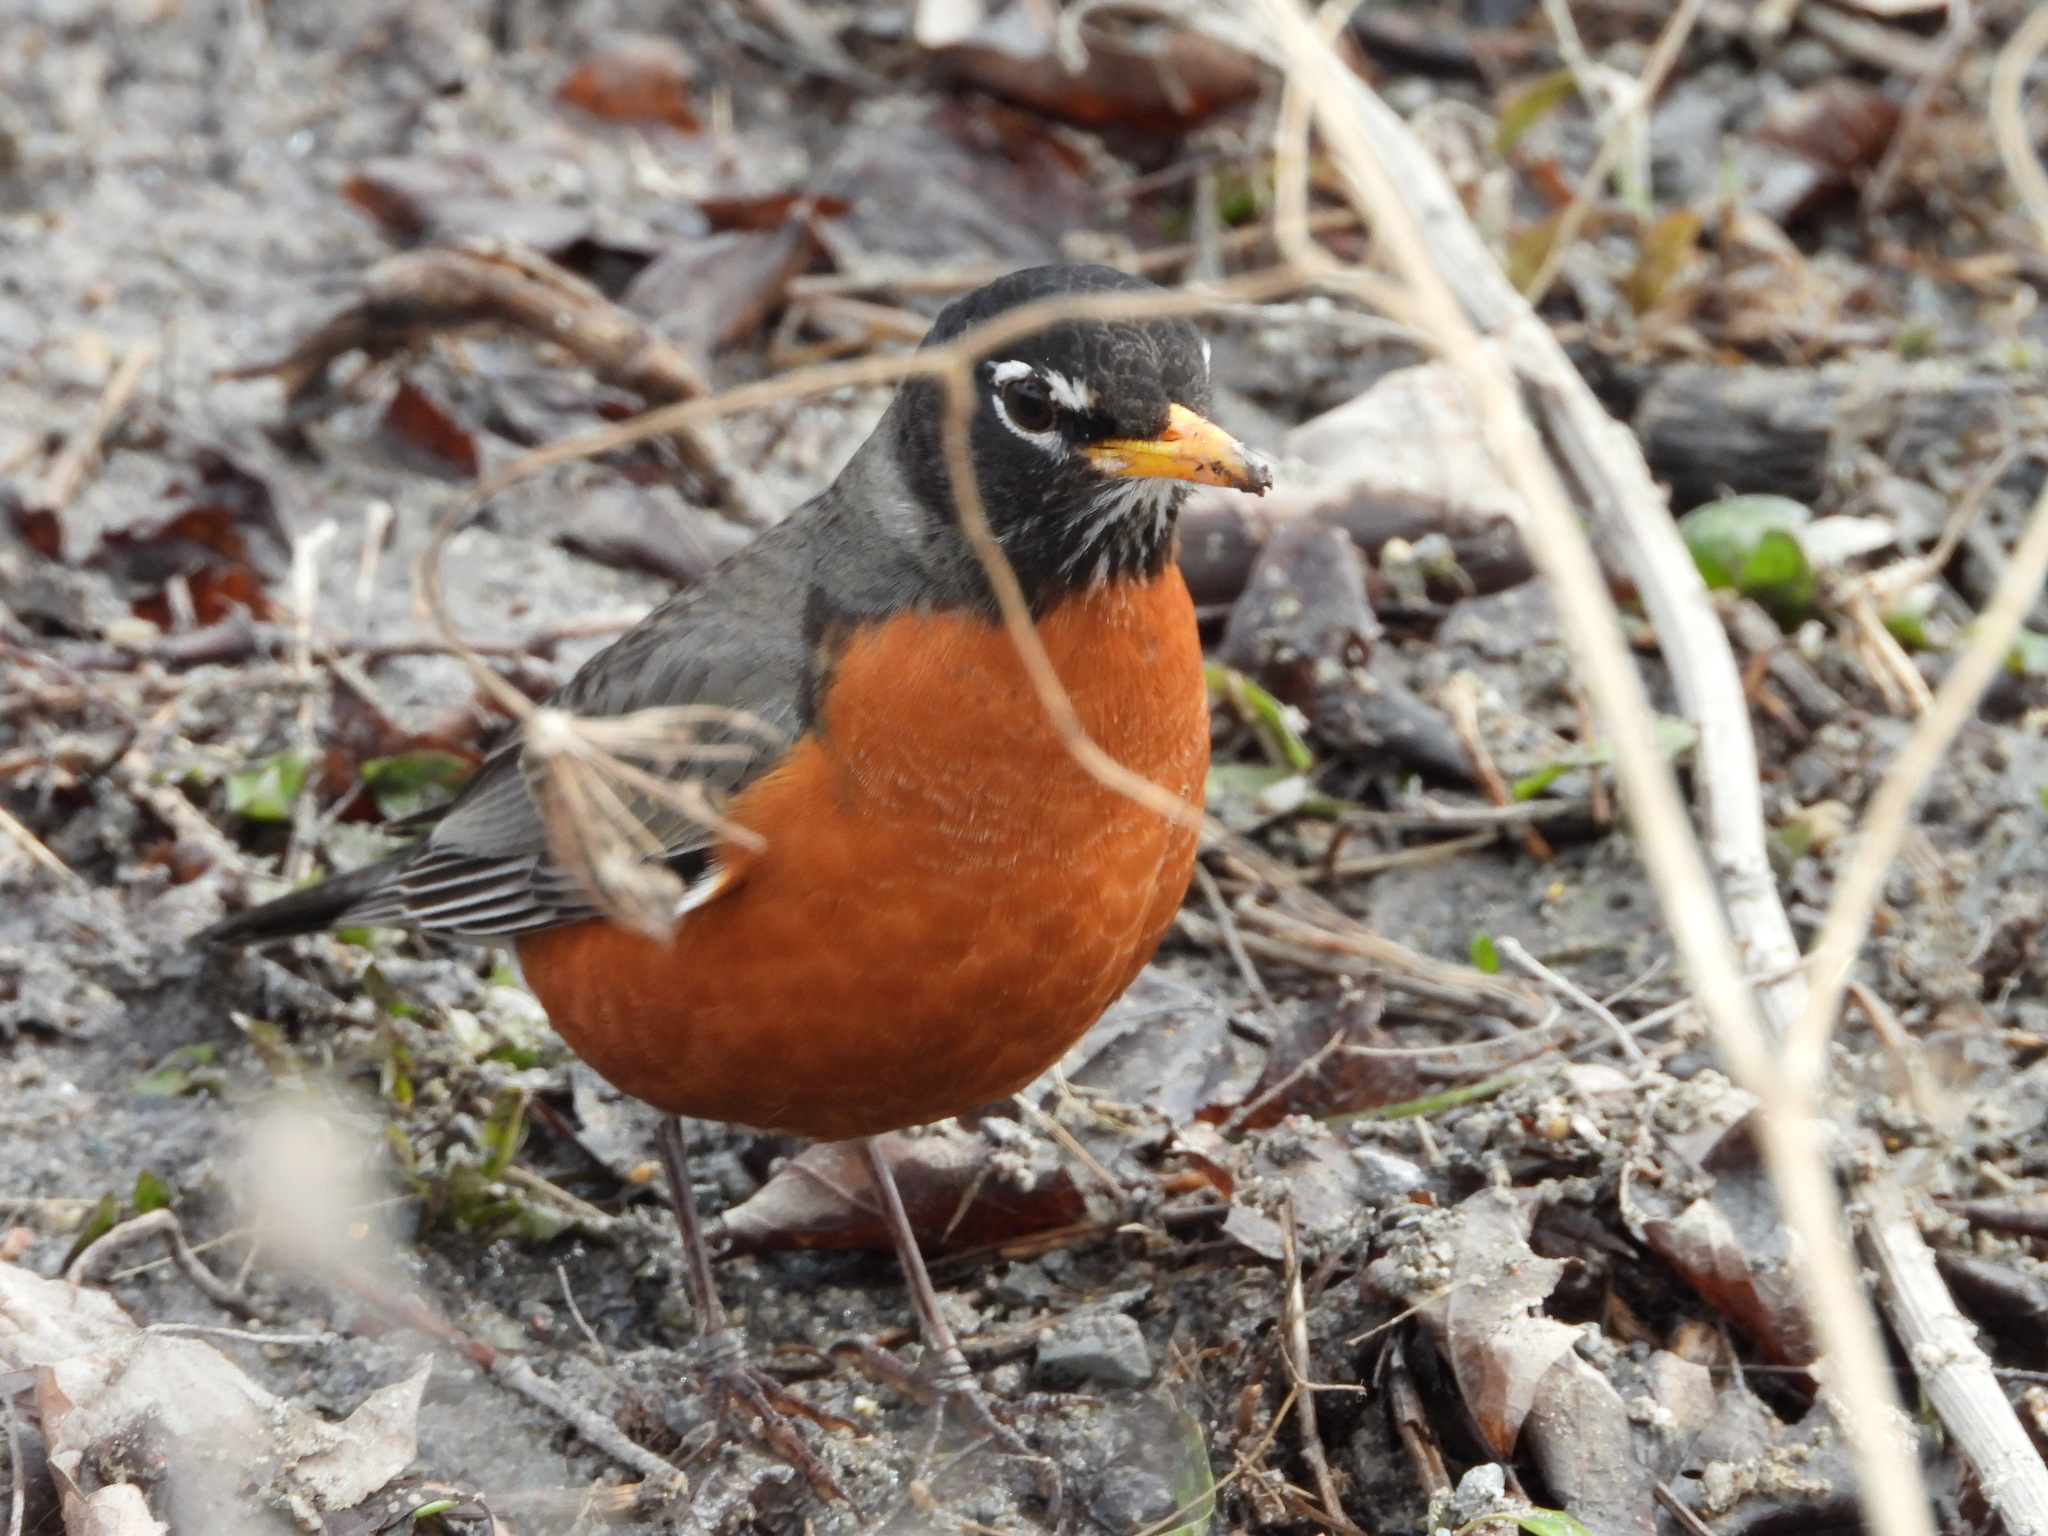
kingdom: Animalia
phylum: Chordata
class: Aves
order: Passeriformes
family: Turdidae
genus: Turdus
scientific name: Turdus migratorius
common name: American robin
